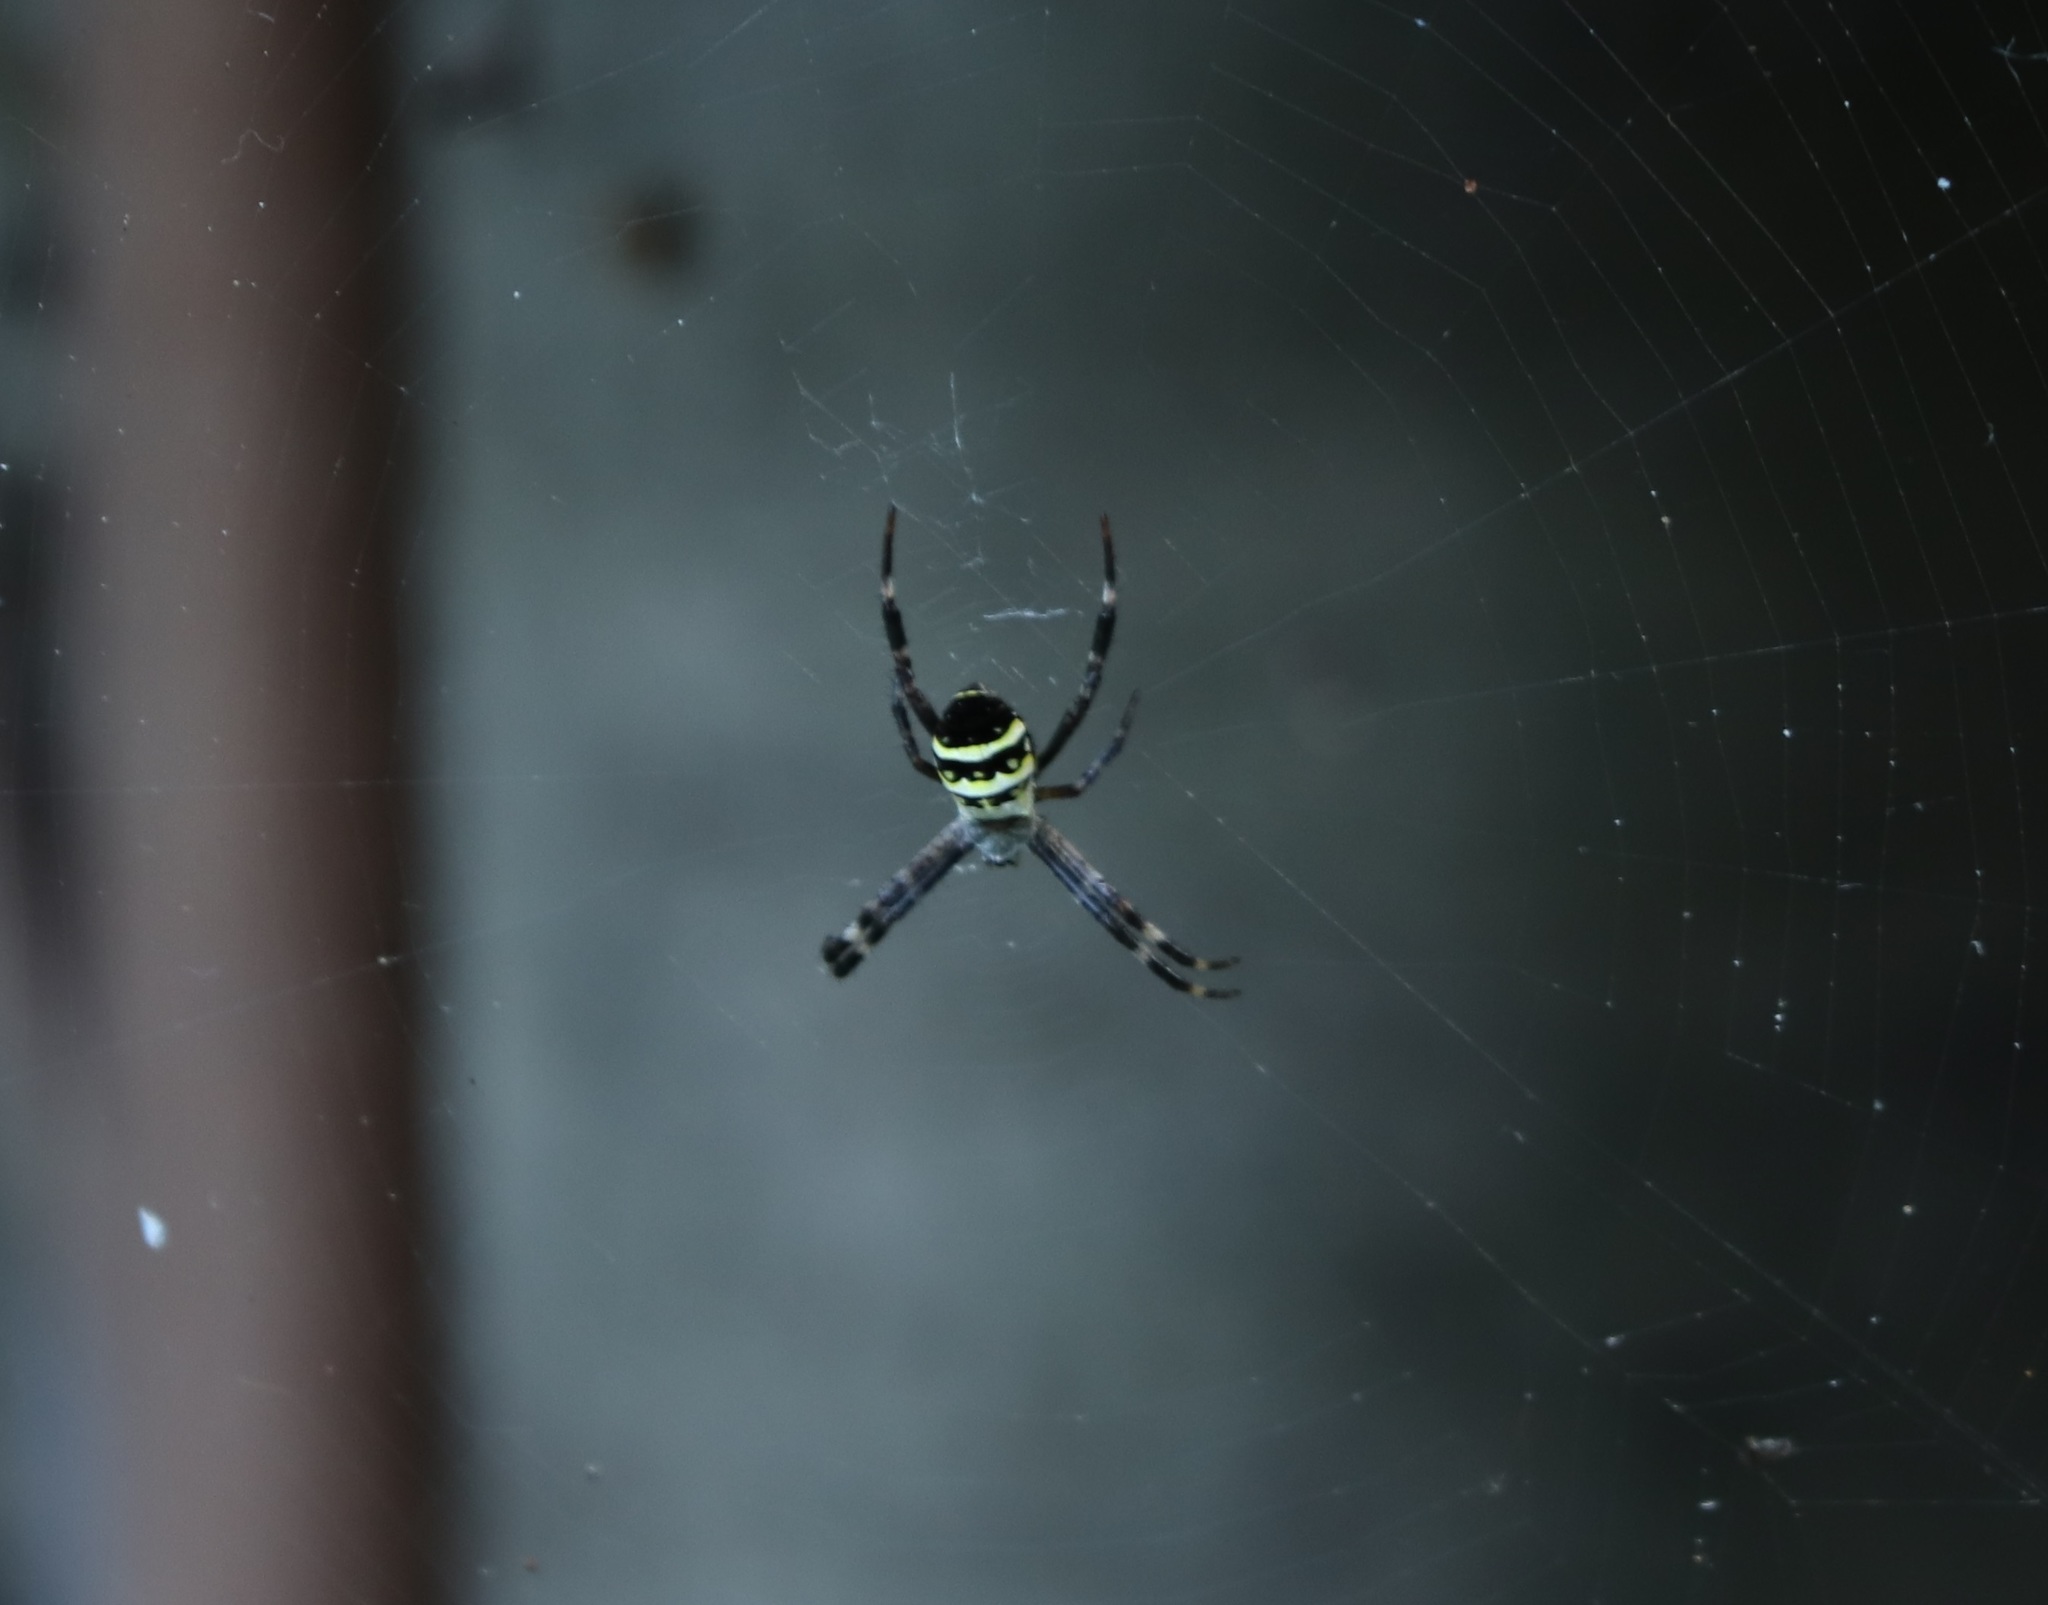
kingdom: Animalia
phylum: Arthropoda
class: Arachnida
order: Araneae
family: Araneidae
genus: Argiope
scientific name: Argiope amoena
